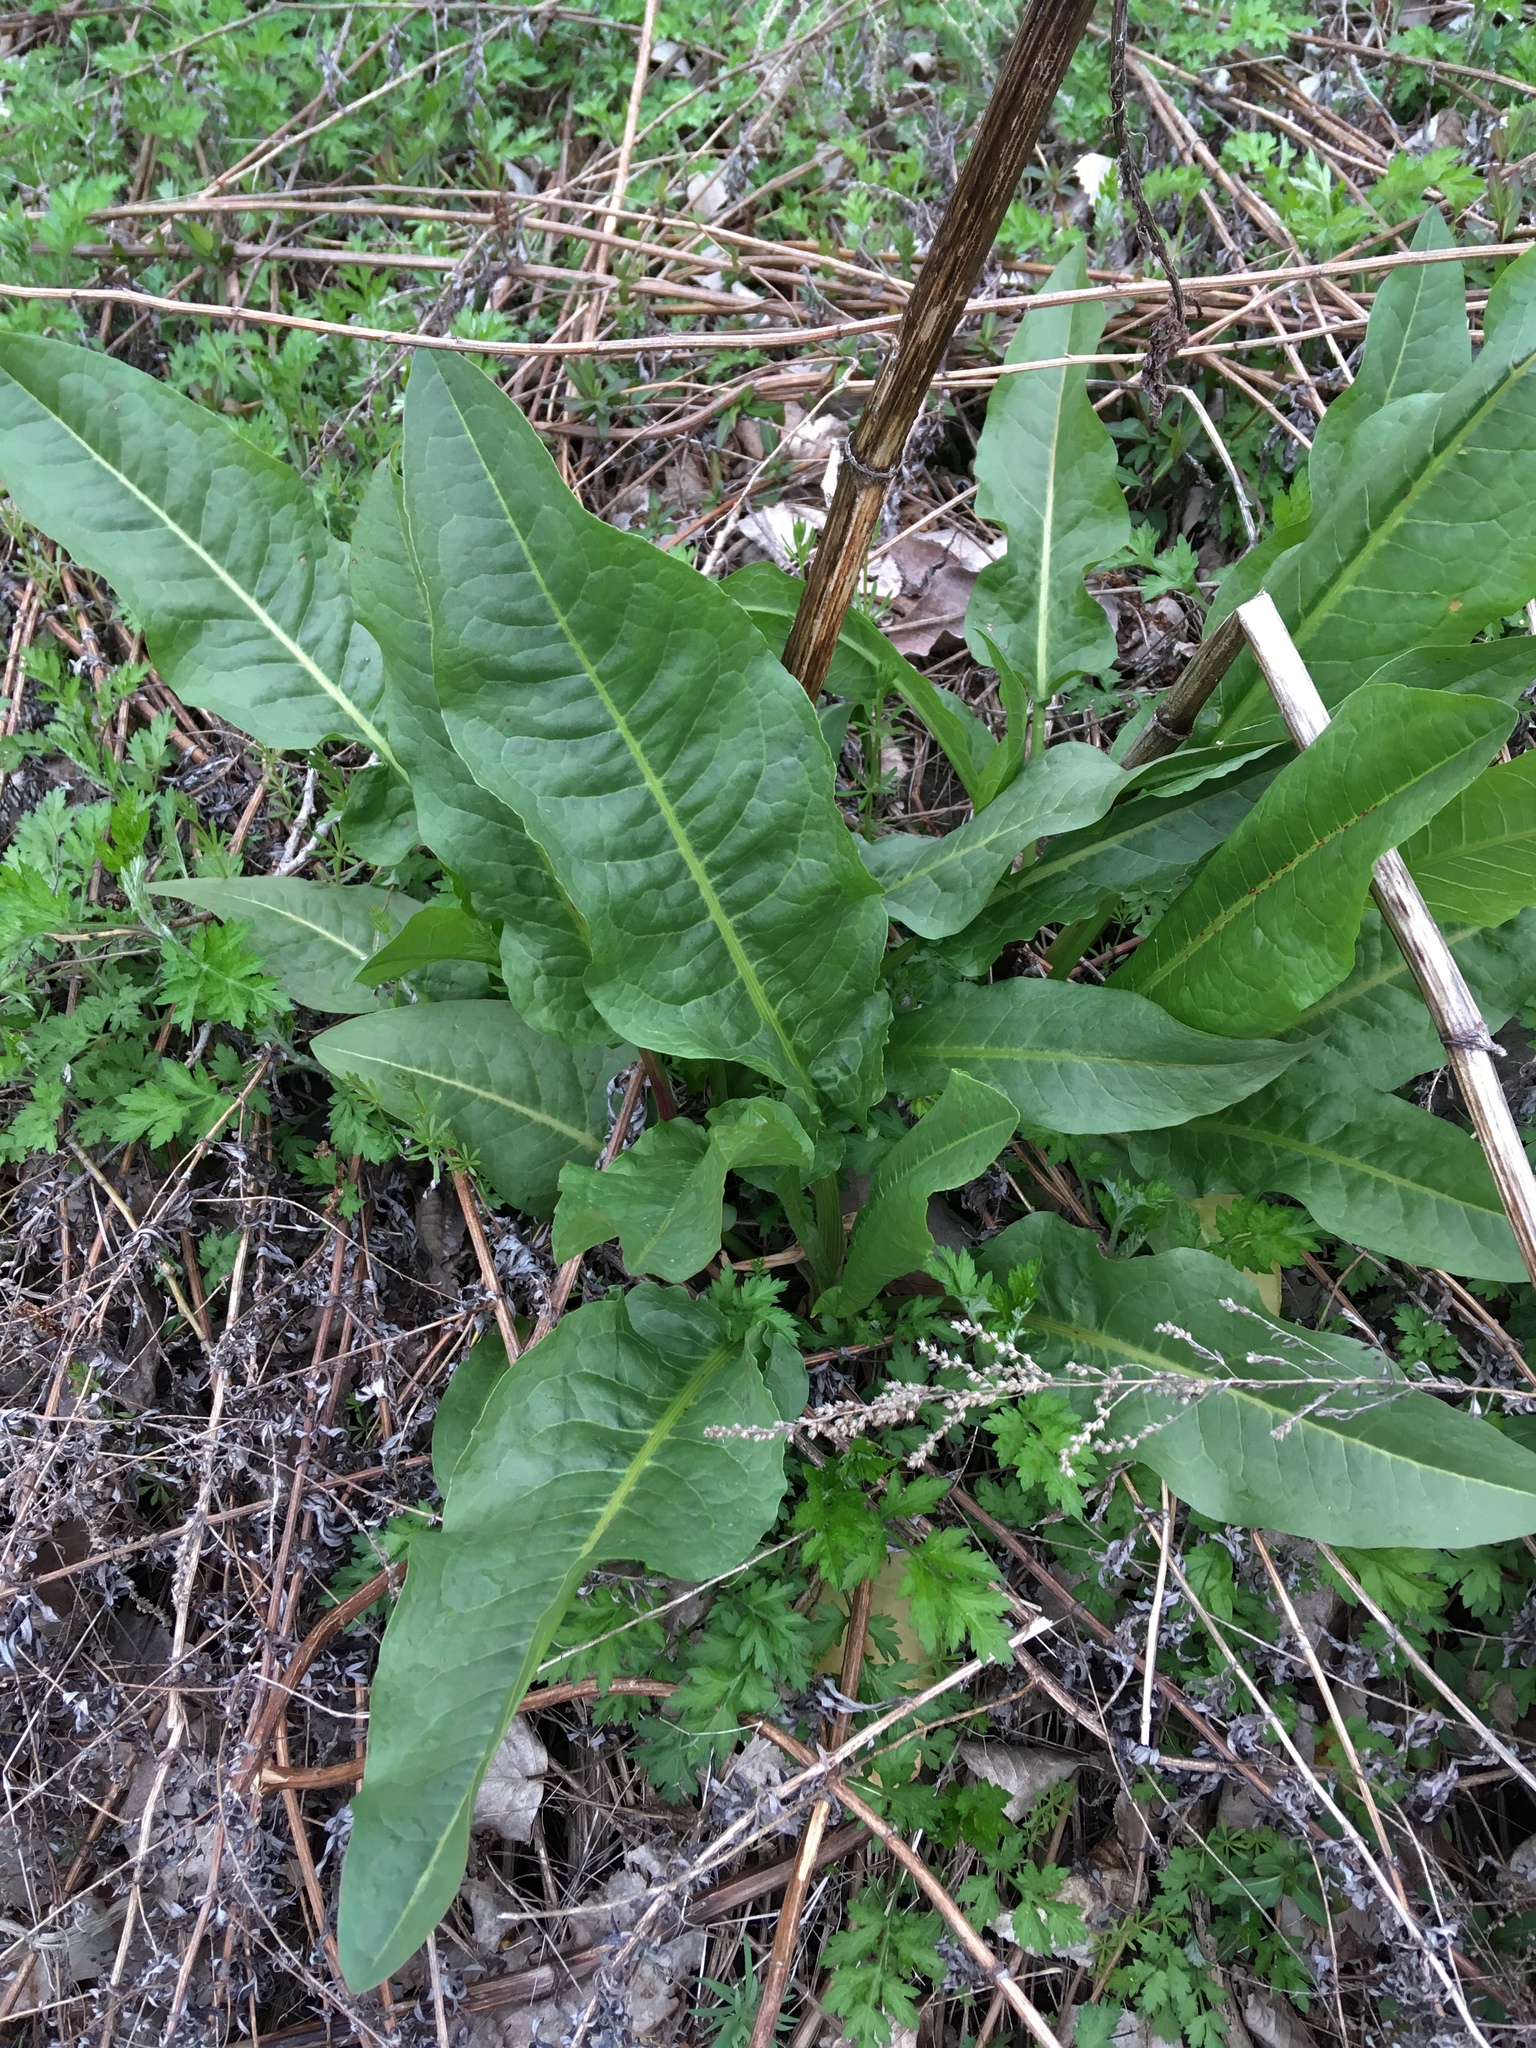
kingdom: Plantae
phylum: Tracheophyta
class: Magnoliopsida
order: Caryophyllales
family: Polygonaceae
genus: Rumex
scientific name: Rumex patientia
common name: Patience dock
